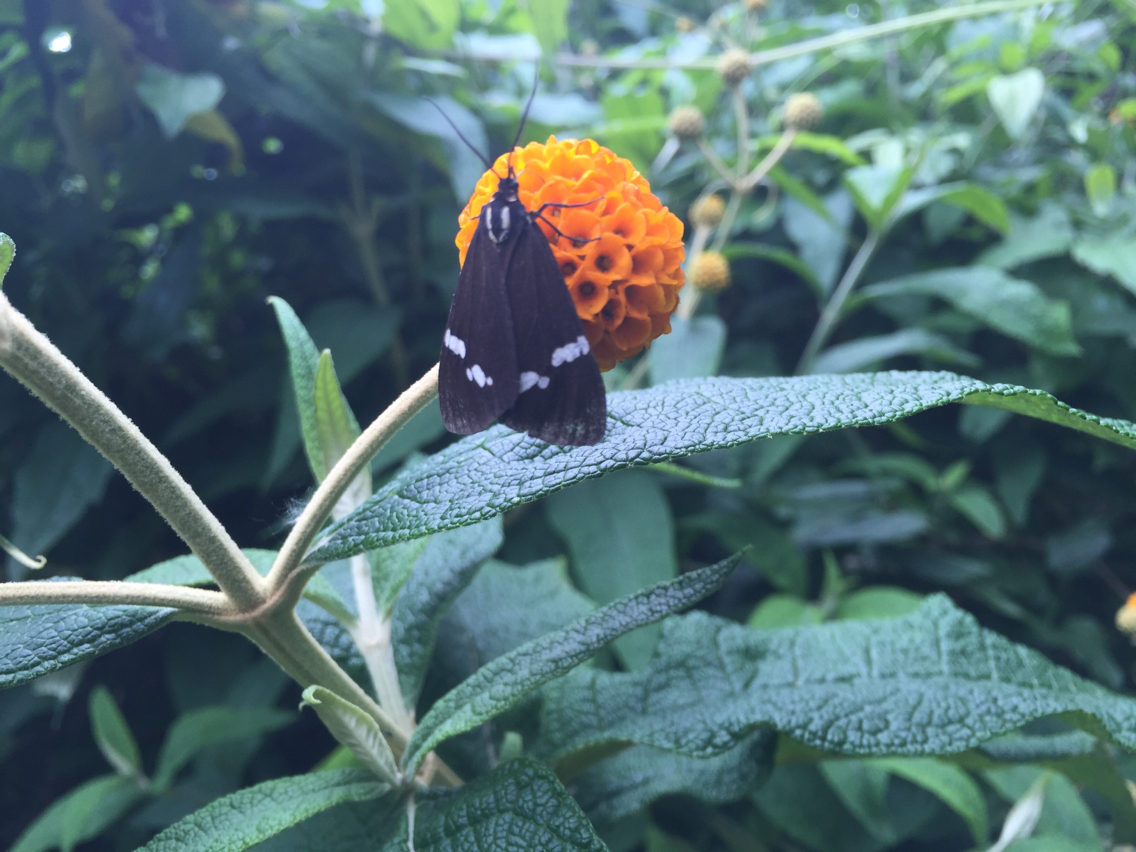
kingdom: Animalia
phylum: Arthropoda
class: Insecta
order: Lepidoptera
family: Erebidae
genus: Nyctemera
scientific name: Nyctemera annulatum
